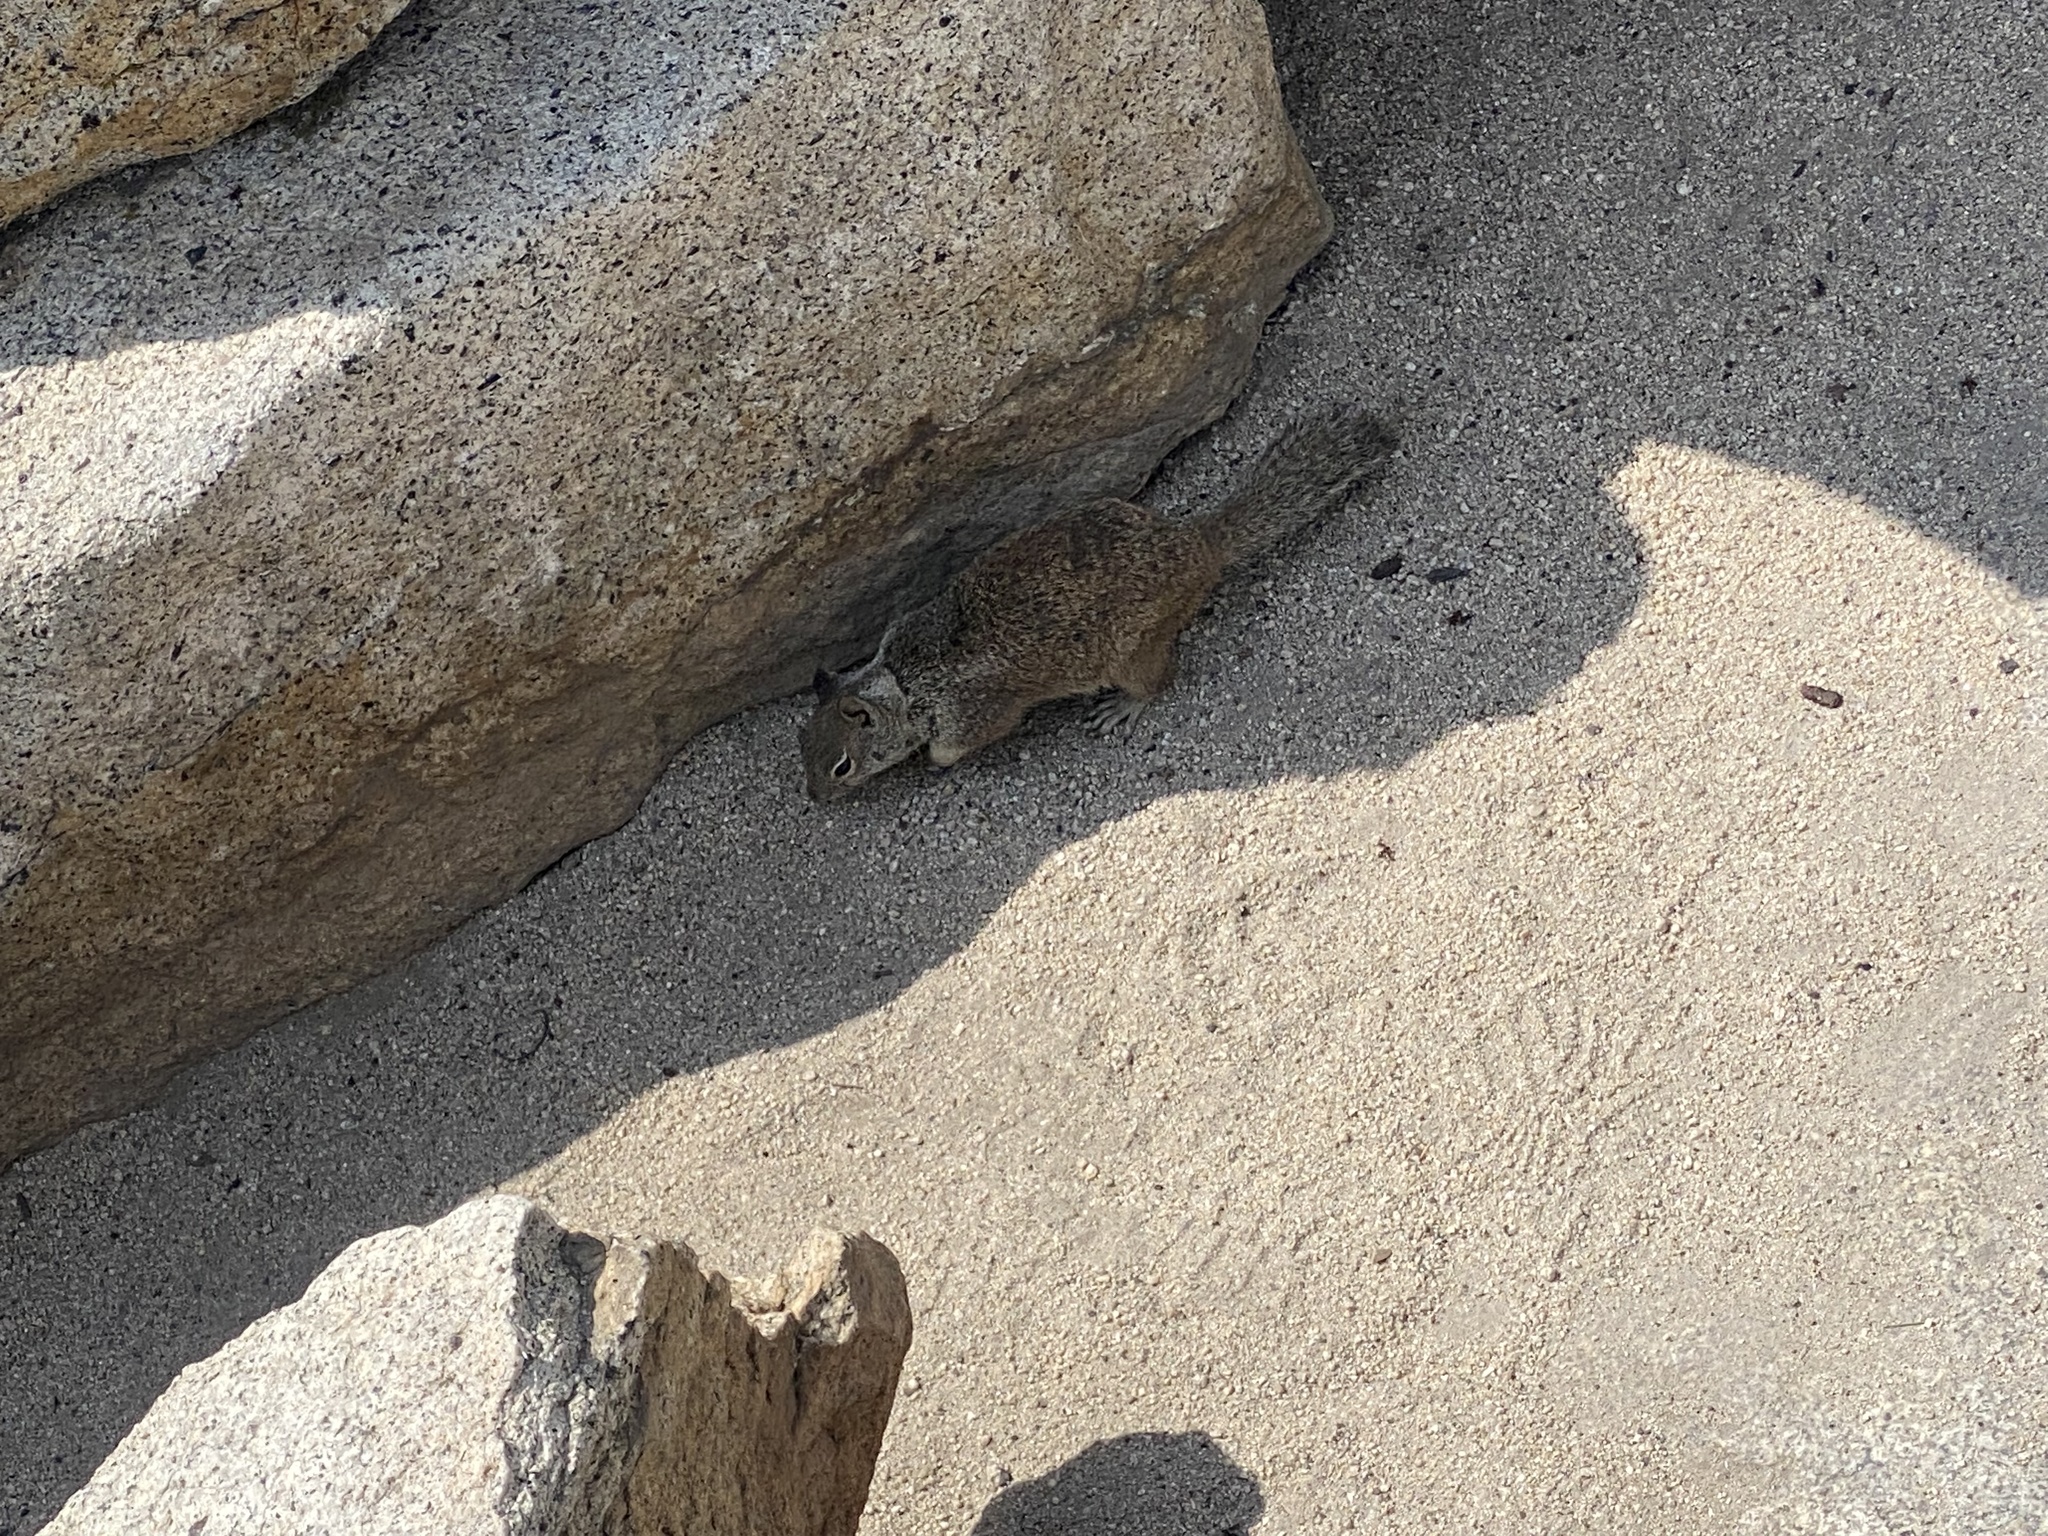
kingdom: Animalia
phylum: Chordata
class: Mammalia
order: Rodentia
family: Sciuridae
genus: Otospermophilus
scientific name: Otospermophilus beecheyi
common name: California ground squirrel
